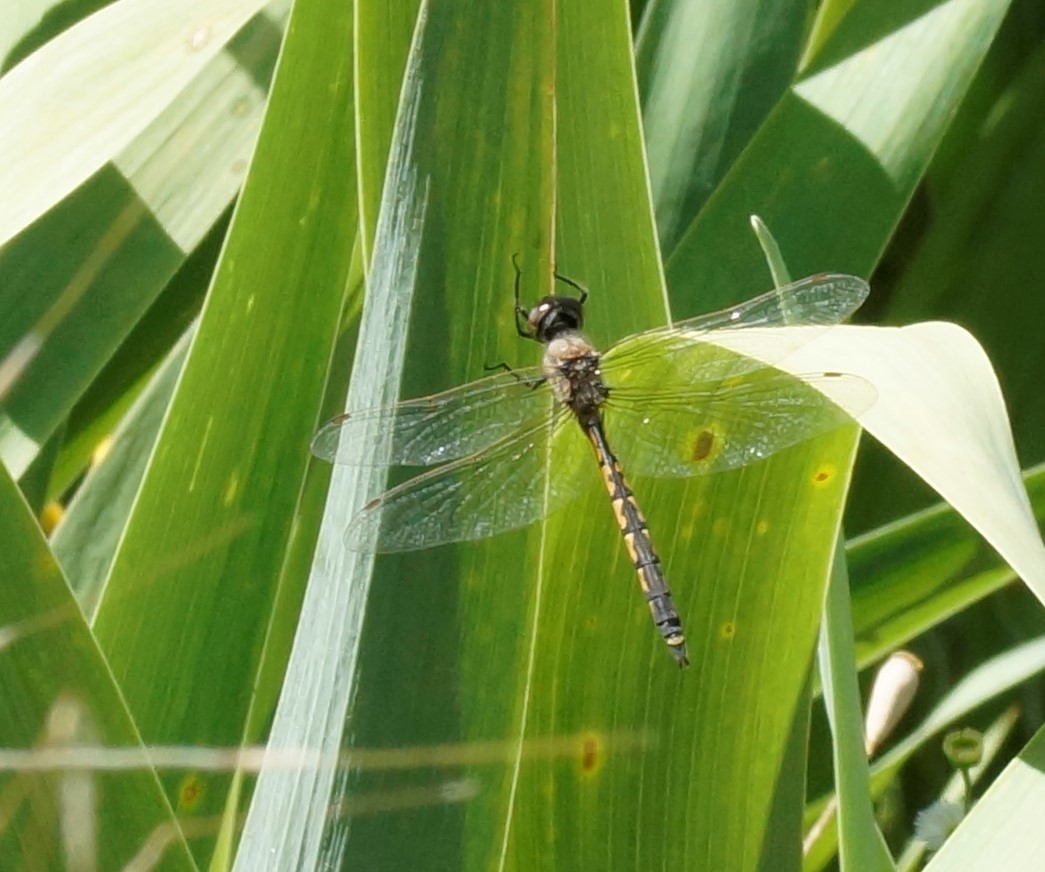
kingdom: Animalia
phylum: Arthropoda
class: Insecta
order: Odonata
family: Corduliidae
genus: Hemicordulia
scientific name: Hemicordulia tau
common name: Tau emerald
